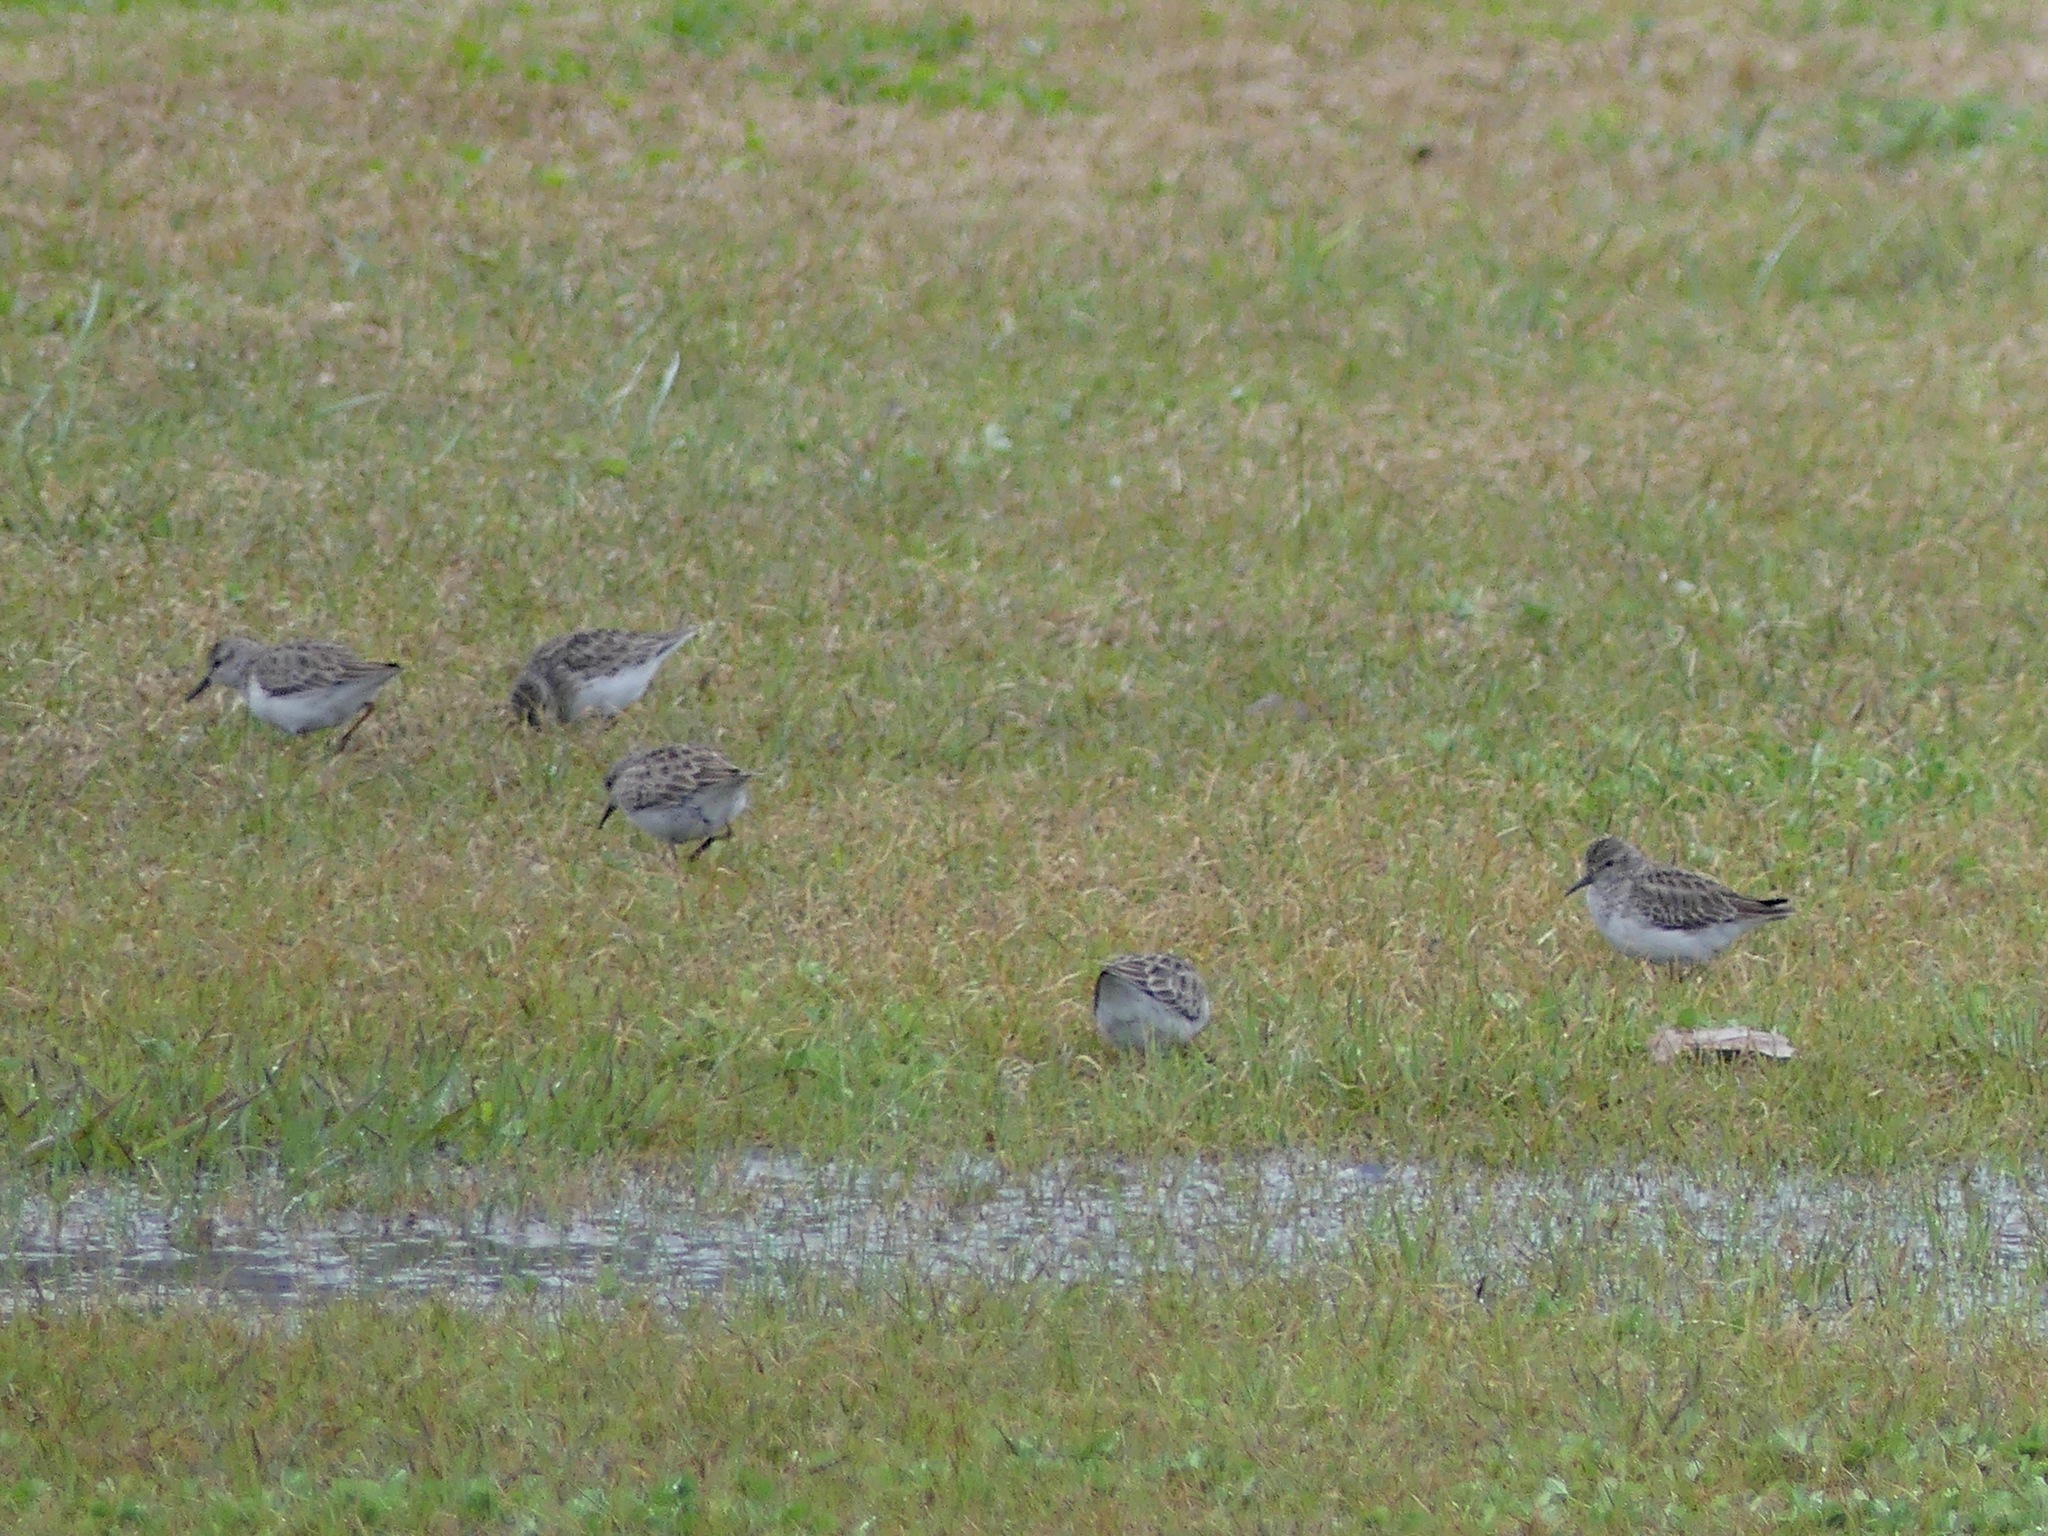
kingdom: Animalia
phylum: Chordata
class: Aves
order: Charadriiformes
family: Scolopacidae
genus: Calidris
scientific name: Calidris minutilla
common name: Least sandpiper
